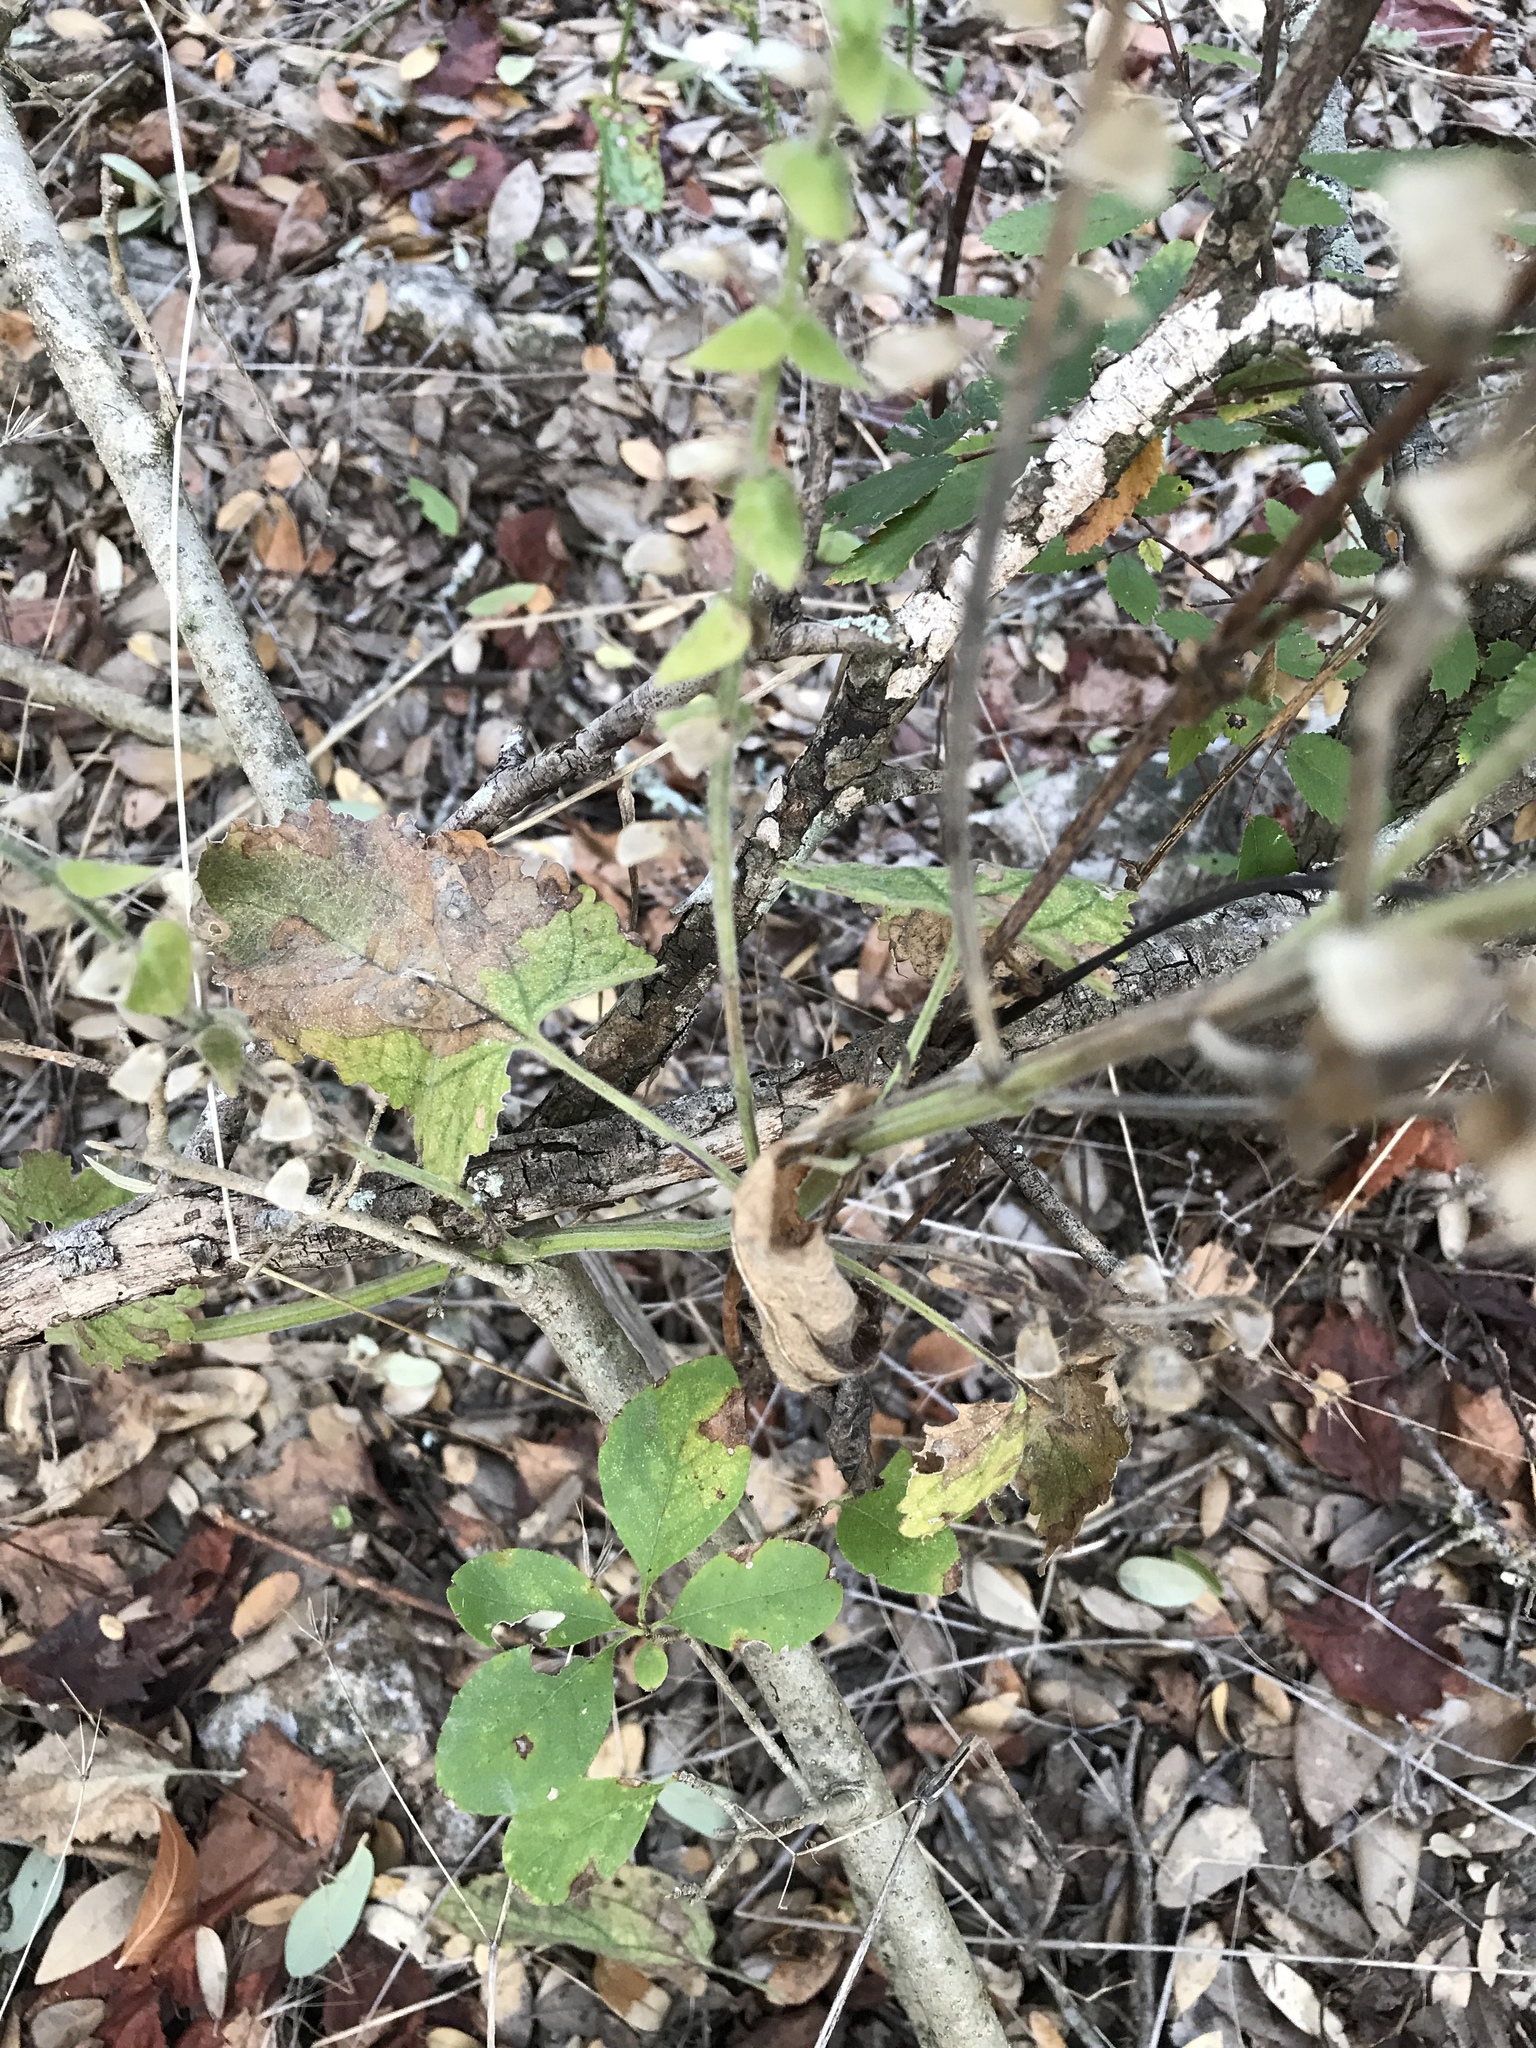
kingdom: Plantae
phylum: Tracheophyta
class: Magnoliopsida
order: Lamiales
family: Lamiaceae
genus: Scutellaria
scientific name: Scutellaria ovata
